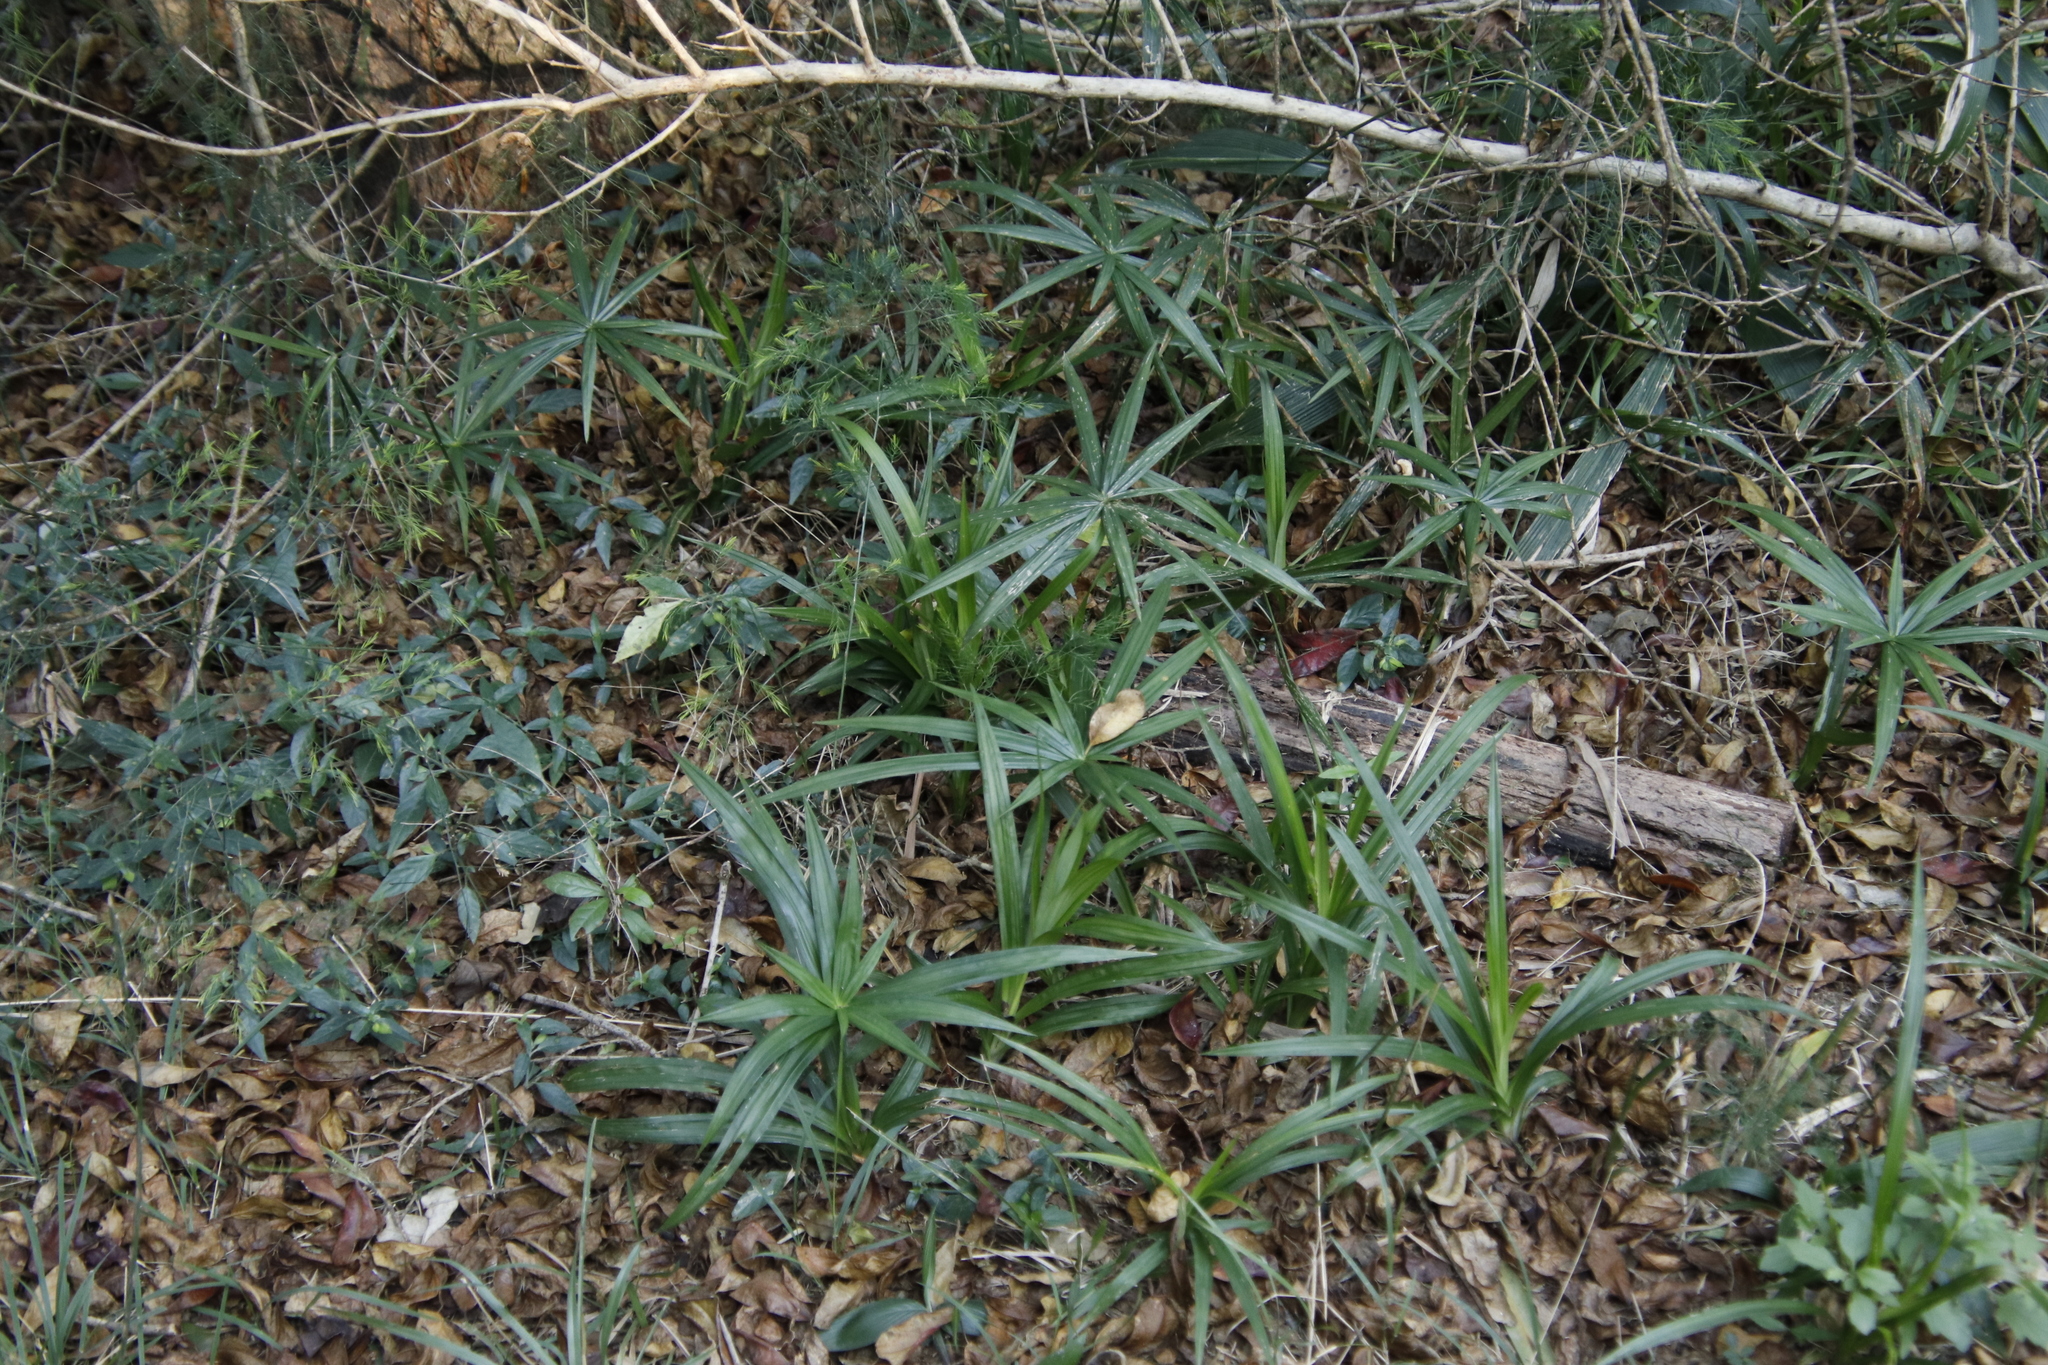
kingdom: Plantae
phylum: Tracheophyta
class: Liliopsida
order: Poales
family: Cyperaceae
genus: Cyperus
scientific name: Cyperus albostriatus
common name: Dwarf umbrella-grass
